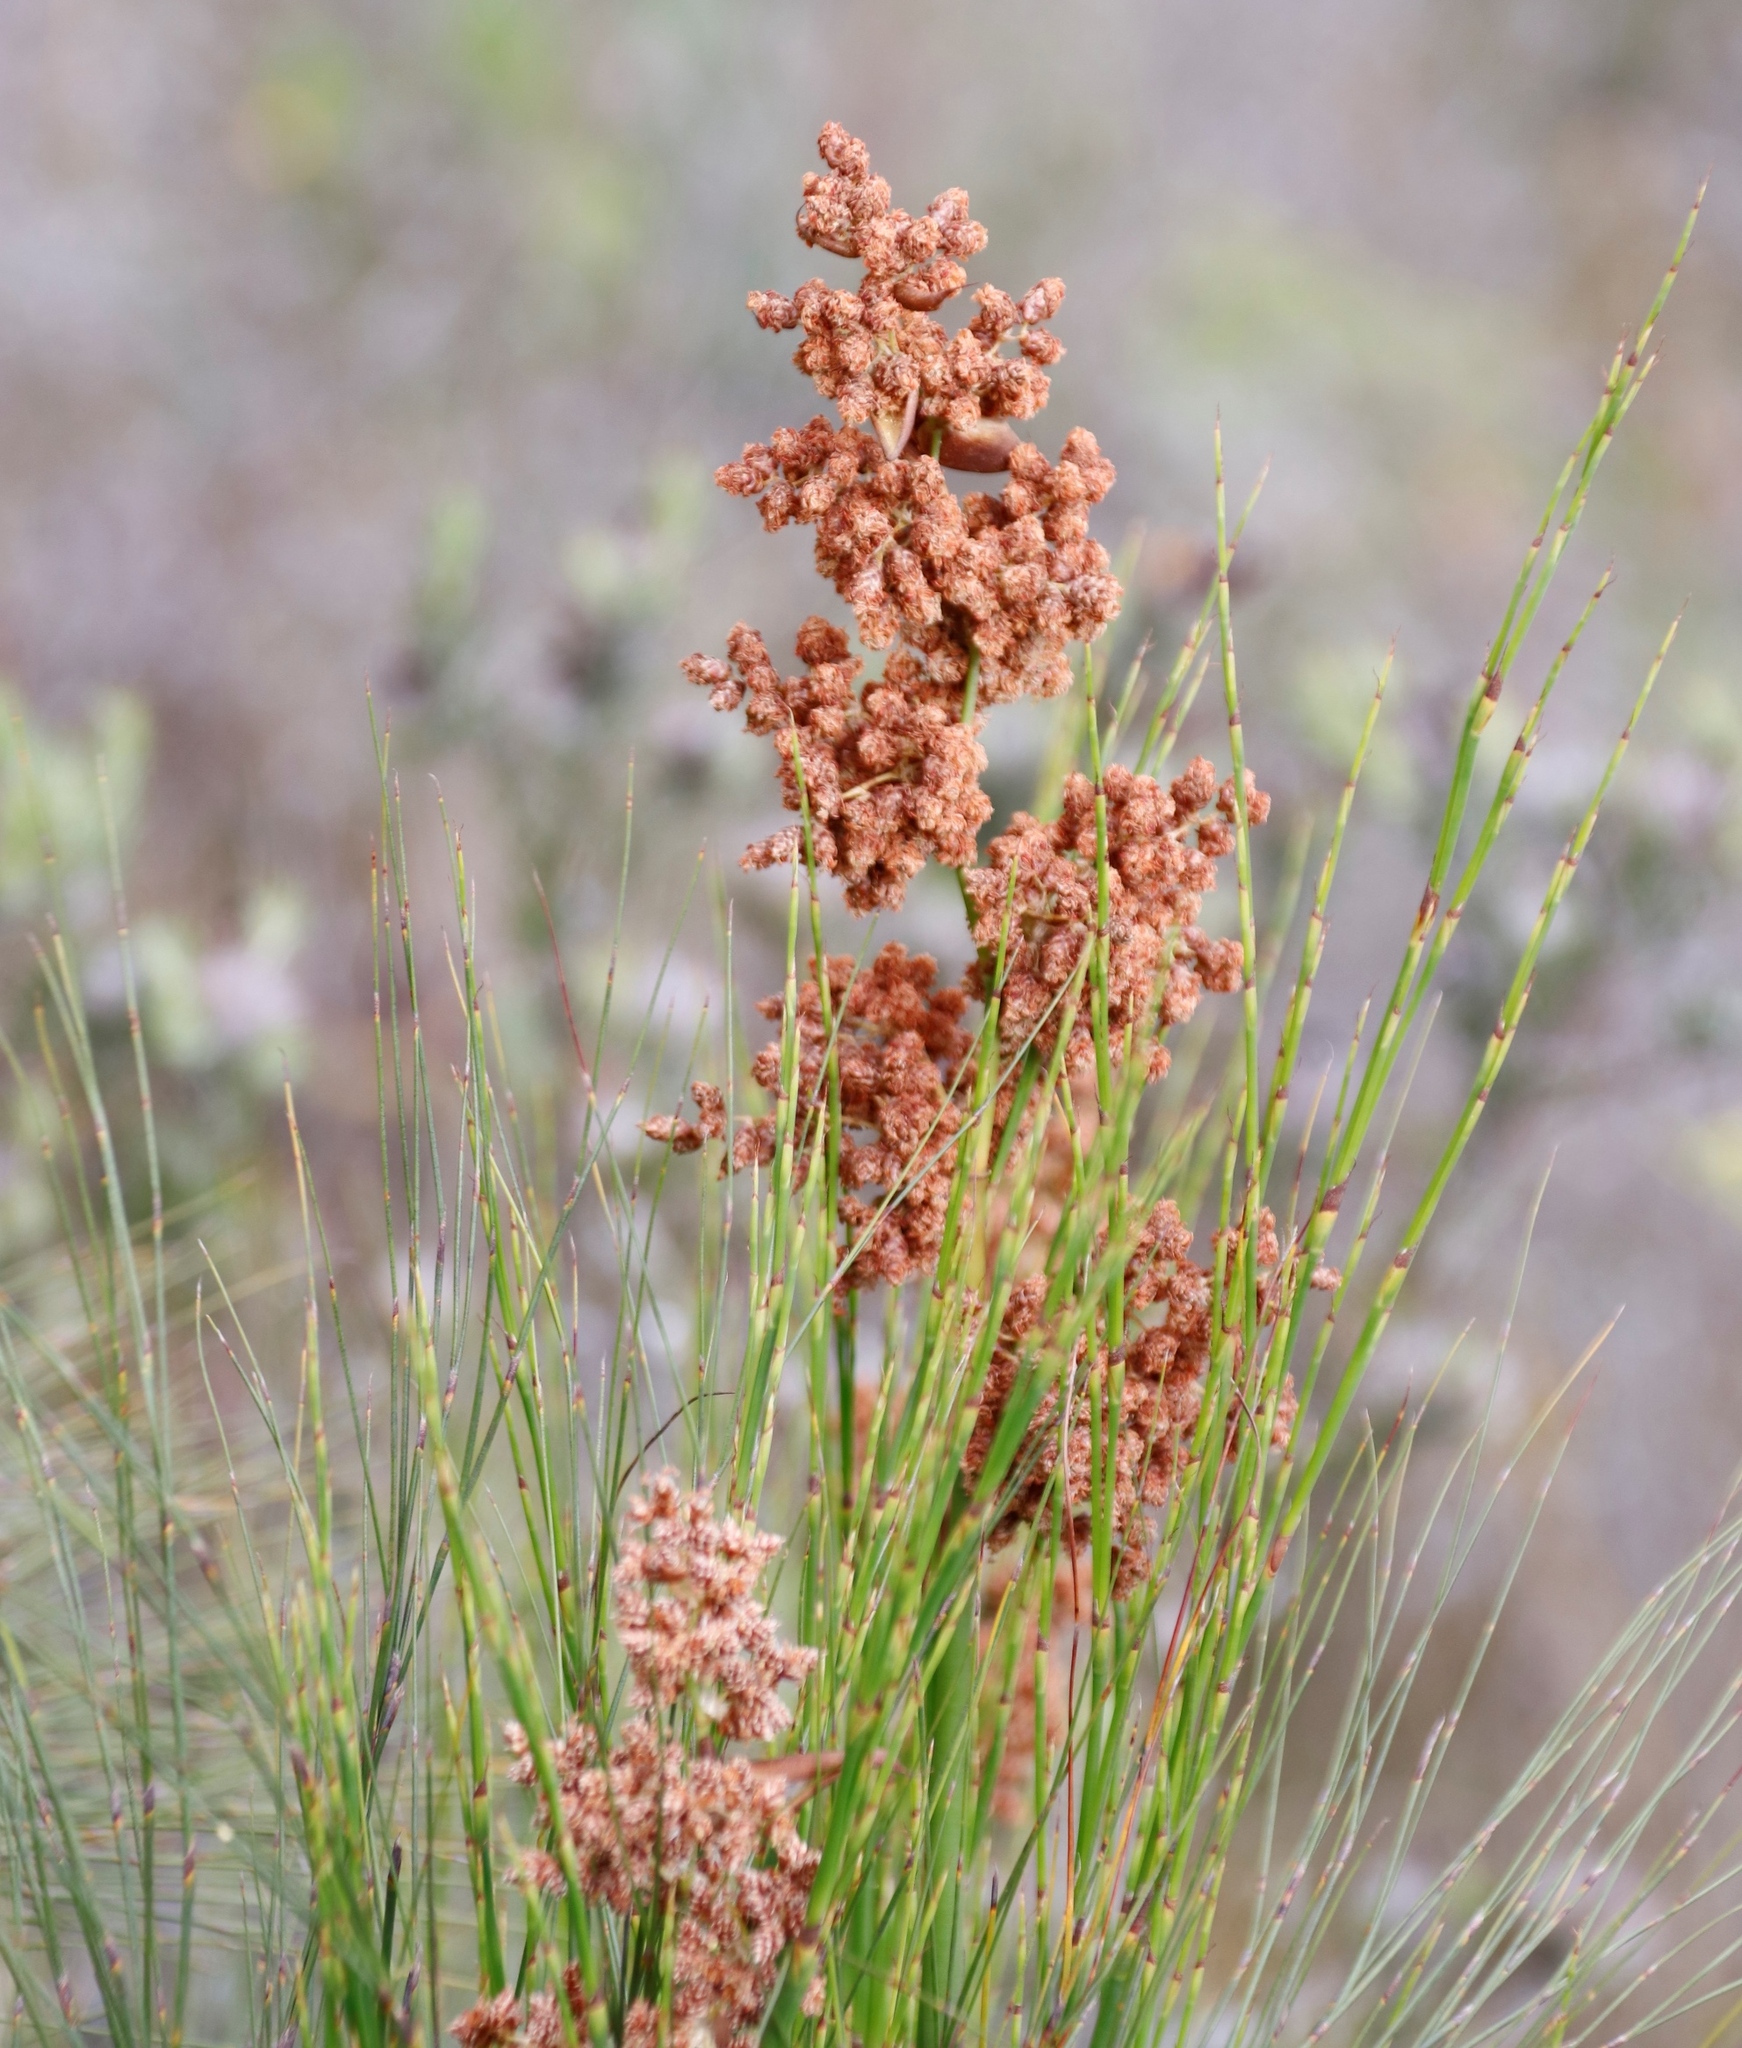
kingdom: Plantae
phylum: Tracheophyta
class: Liliopsida
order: Poales
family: Restionaceae
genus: Cannomois
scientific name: Cannomois virgata
